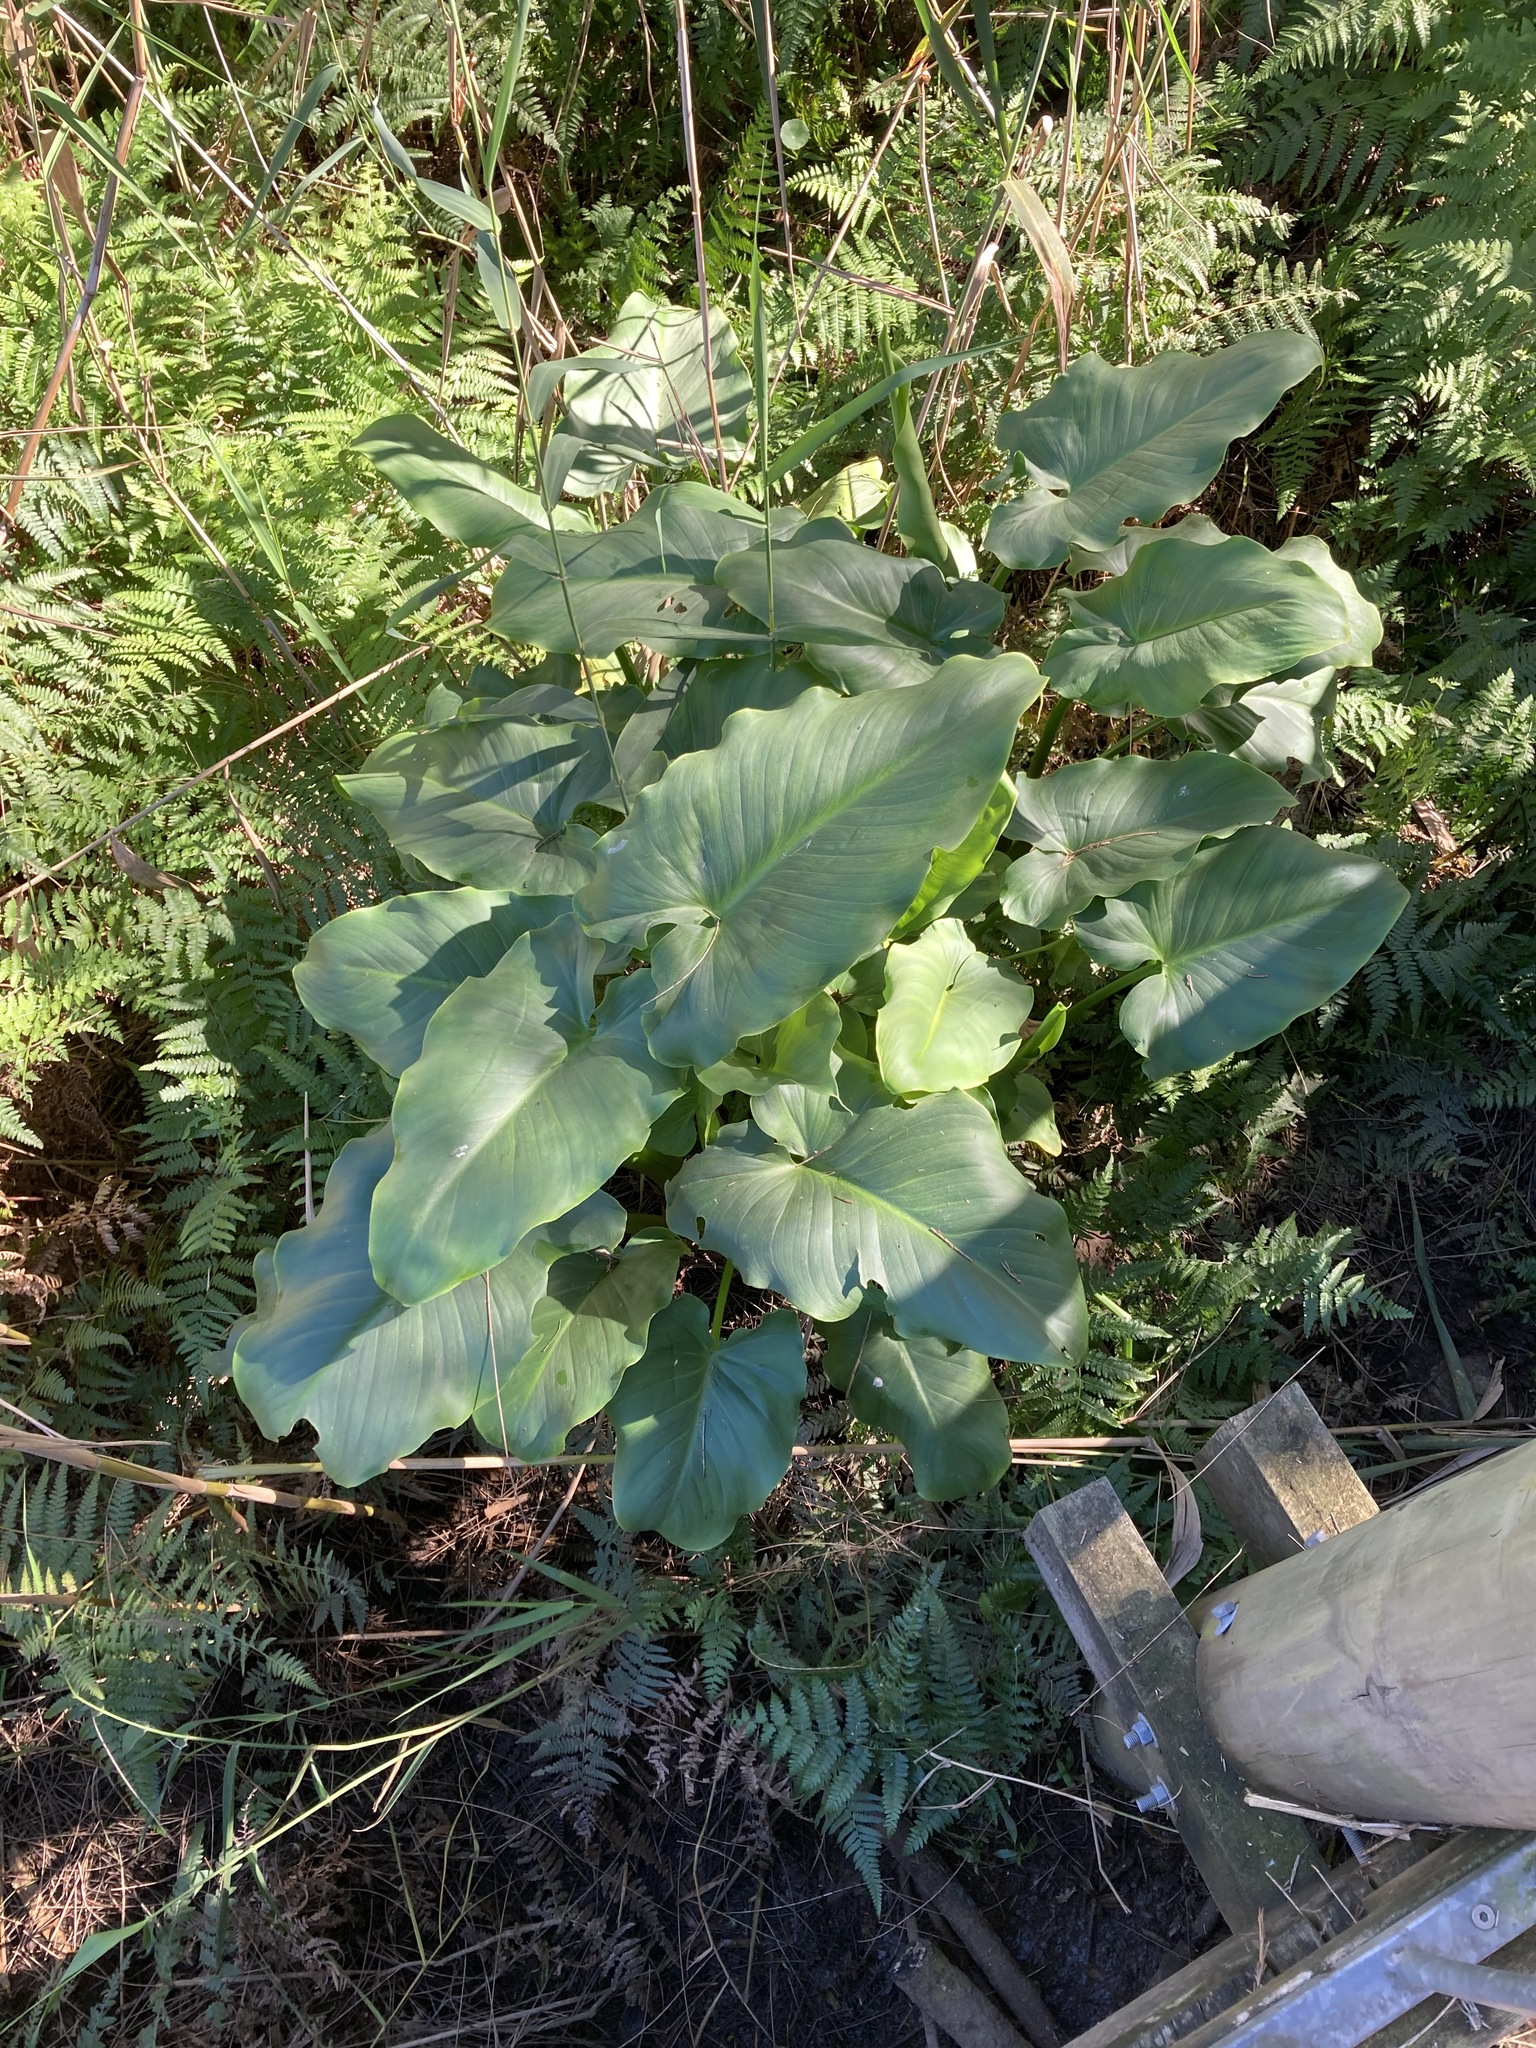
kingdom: Plantae
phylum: Tracheophyta
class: Liliopsida
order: Alismatales
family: Araceae
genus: Zantedeschia
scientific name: Zantedeschia aethiopica
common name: Altar-lily
